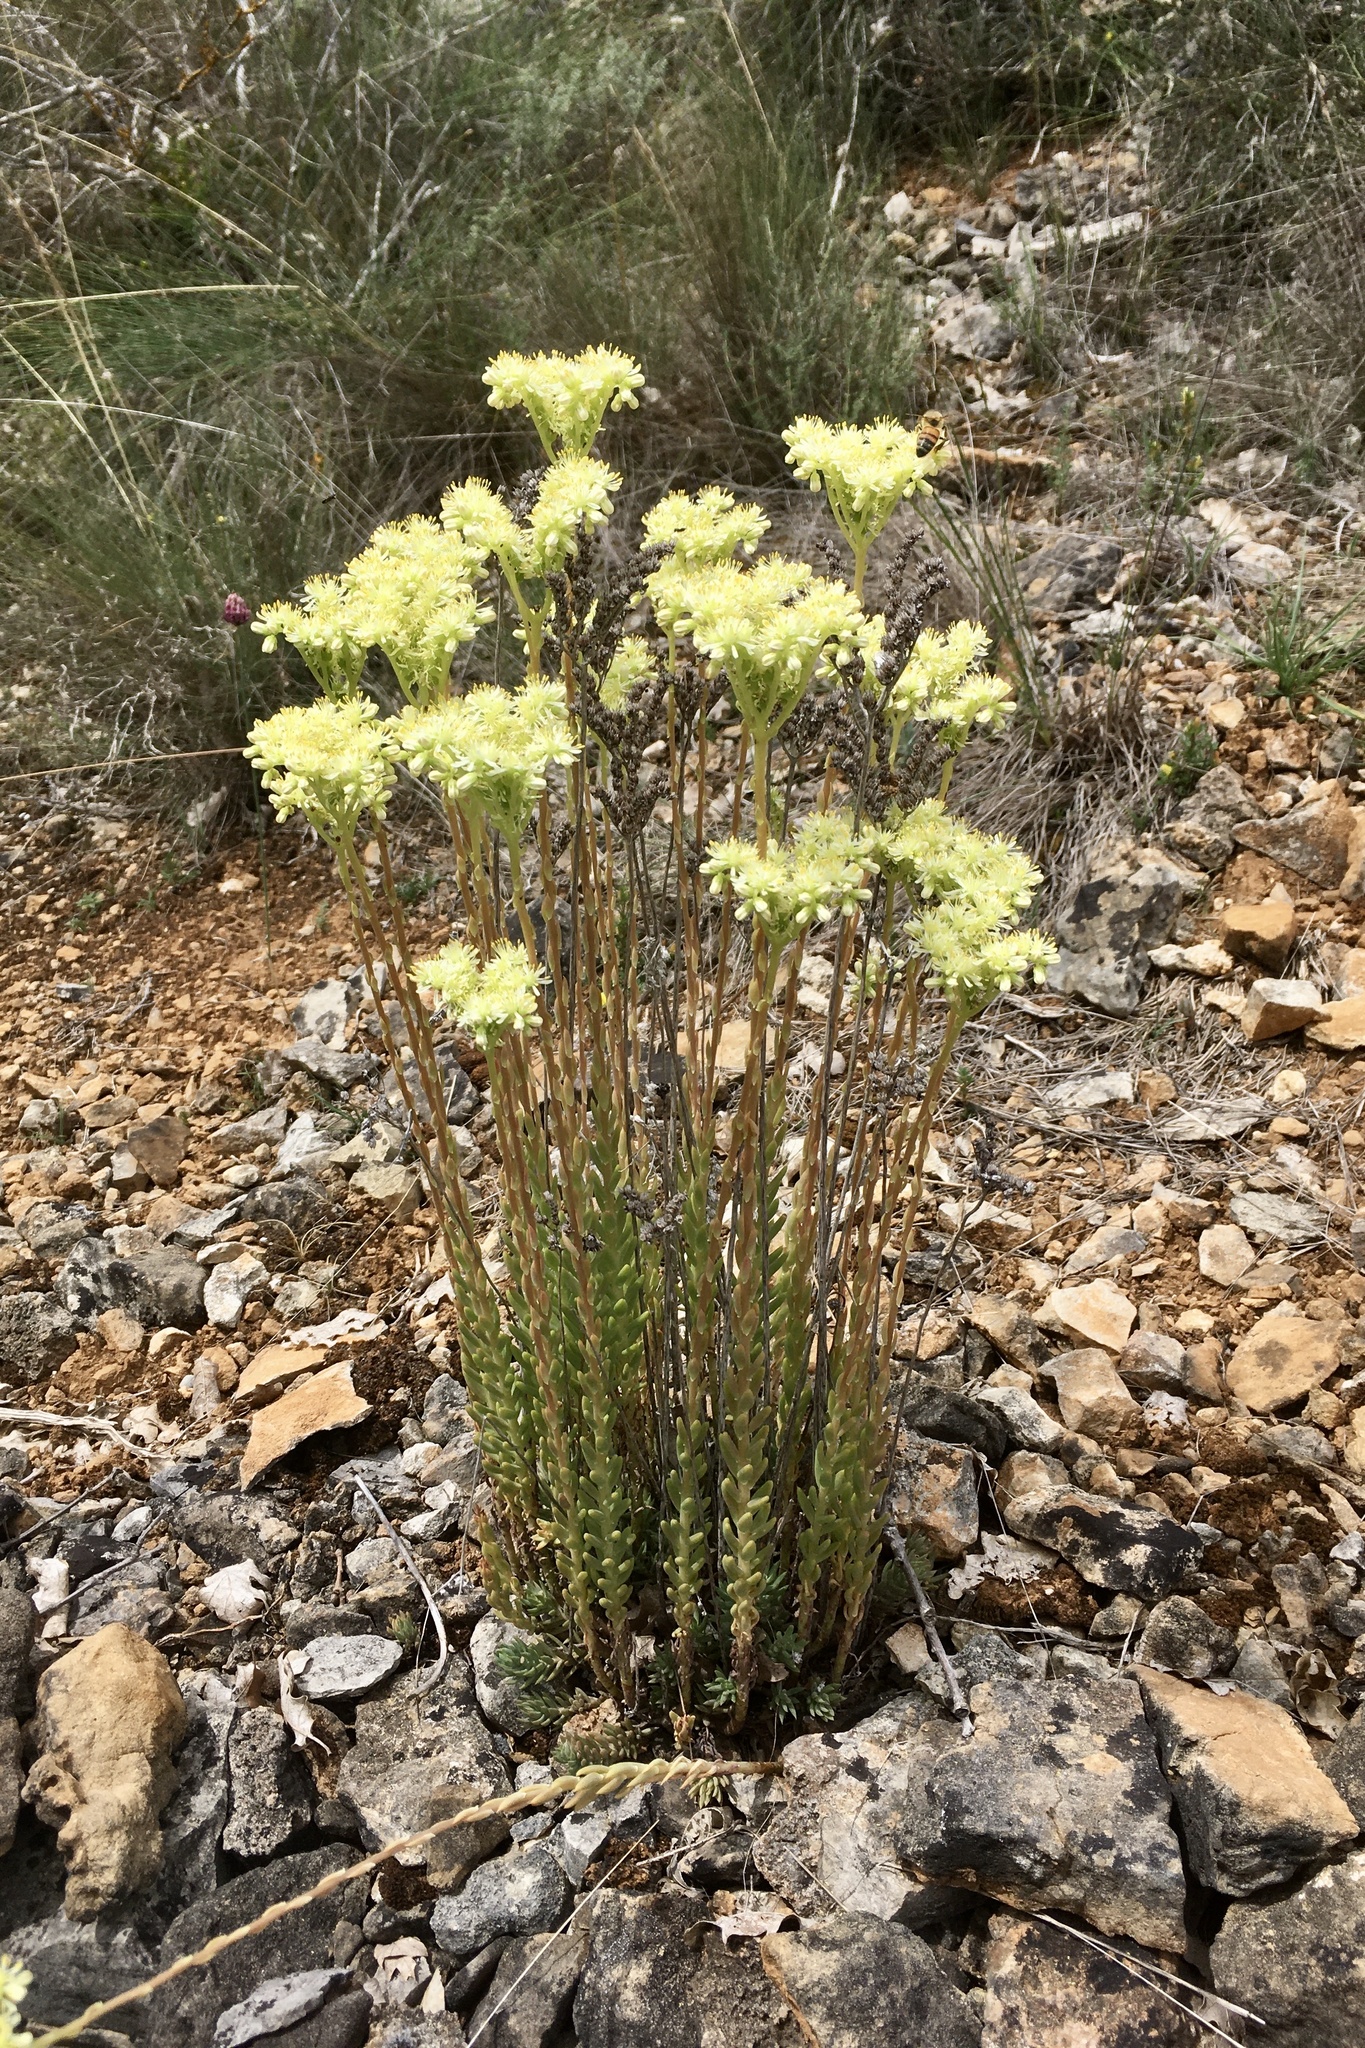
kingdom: Plantae
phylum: Tracheophyta
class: Magnoliopsida
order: Saxifragales
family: Crassulaceae
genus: Petrosedum
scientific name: Petrosedum sediforme
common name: Pale stonecrop
